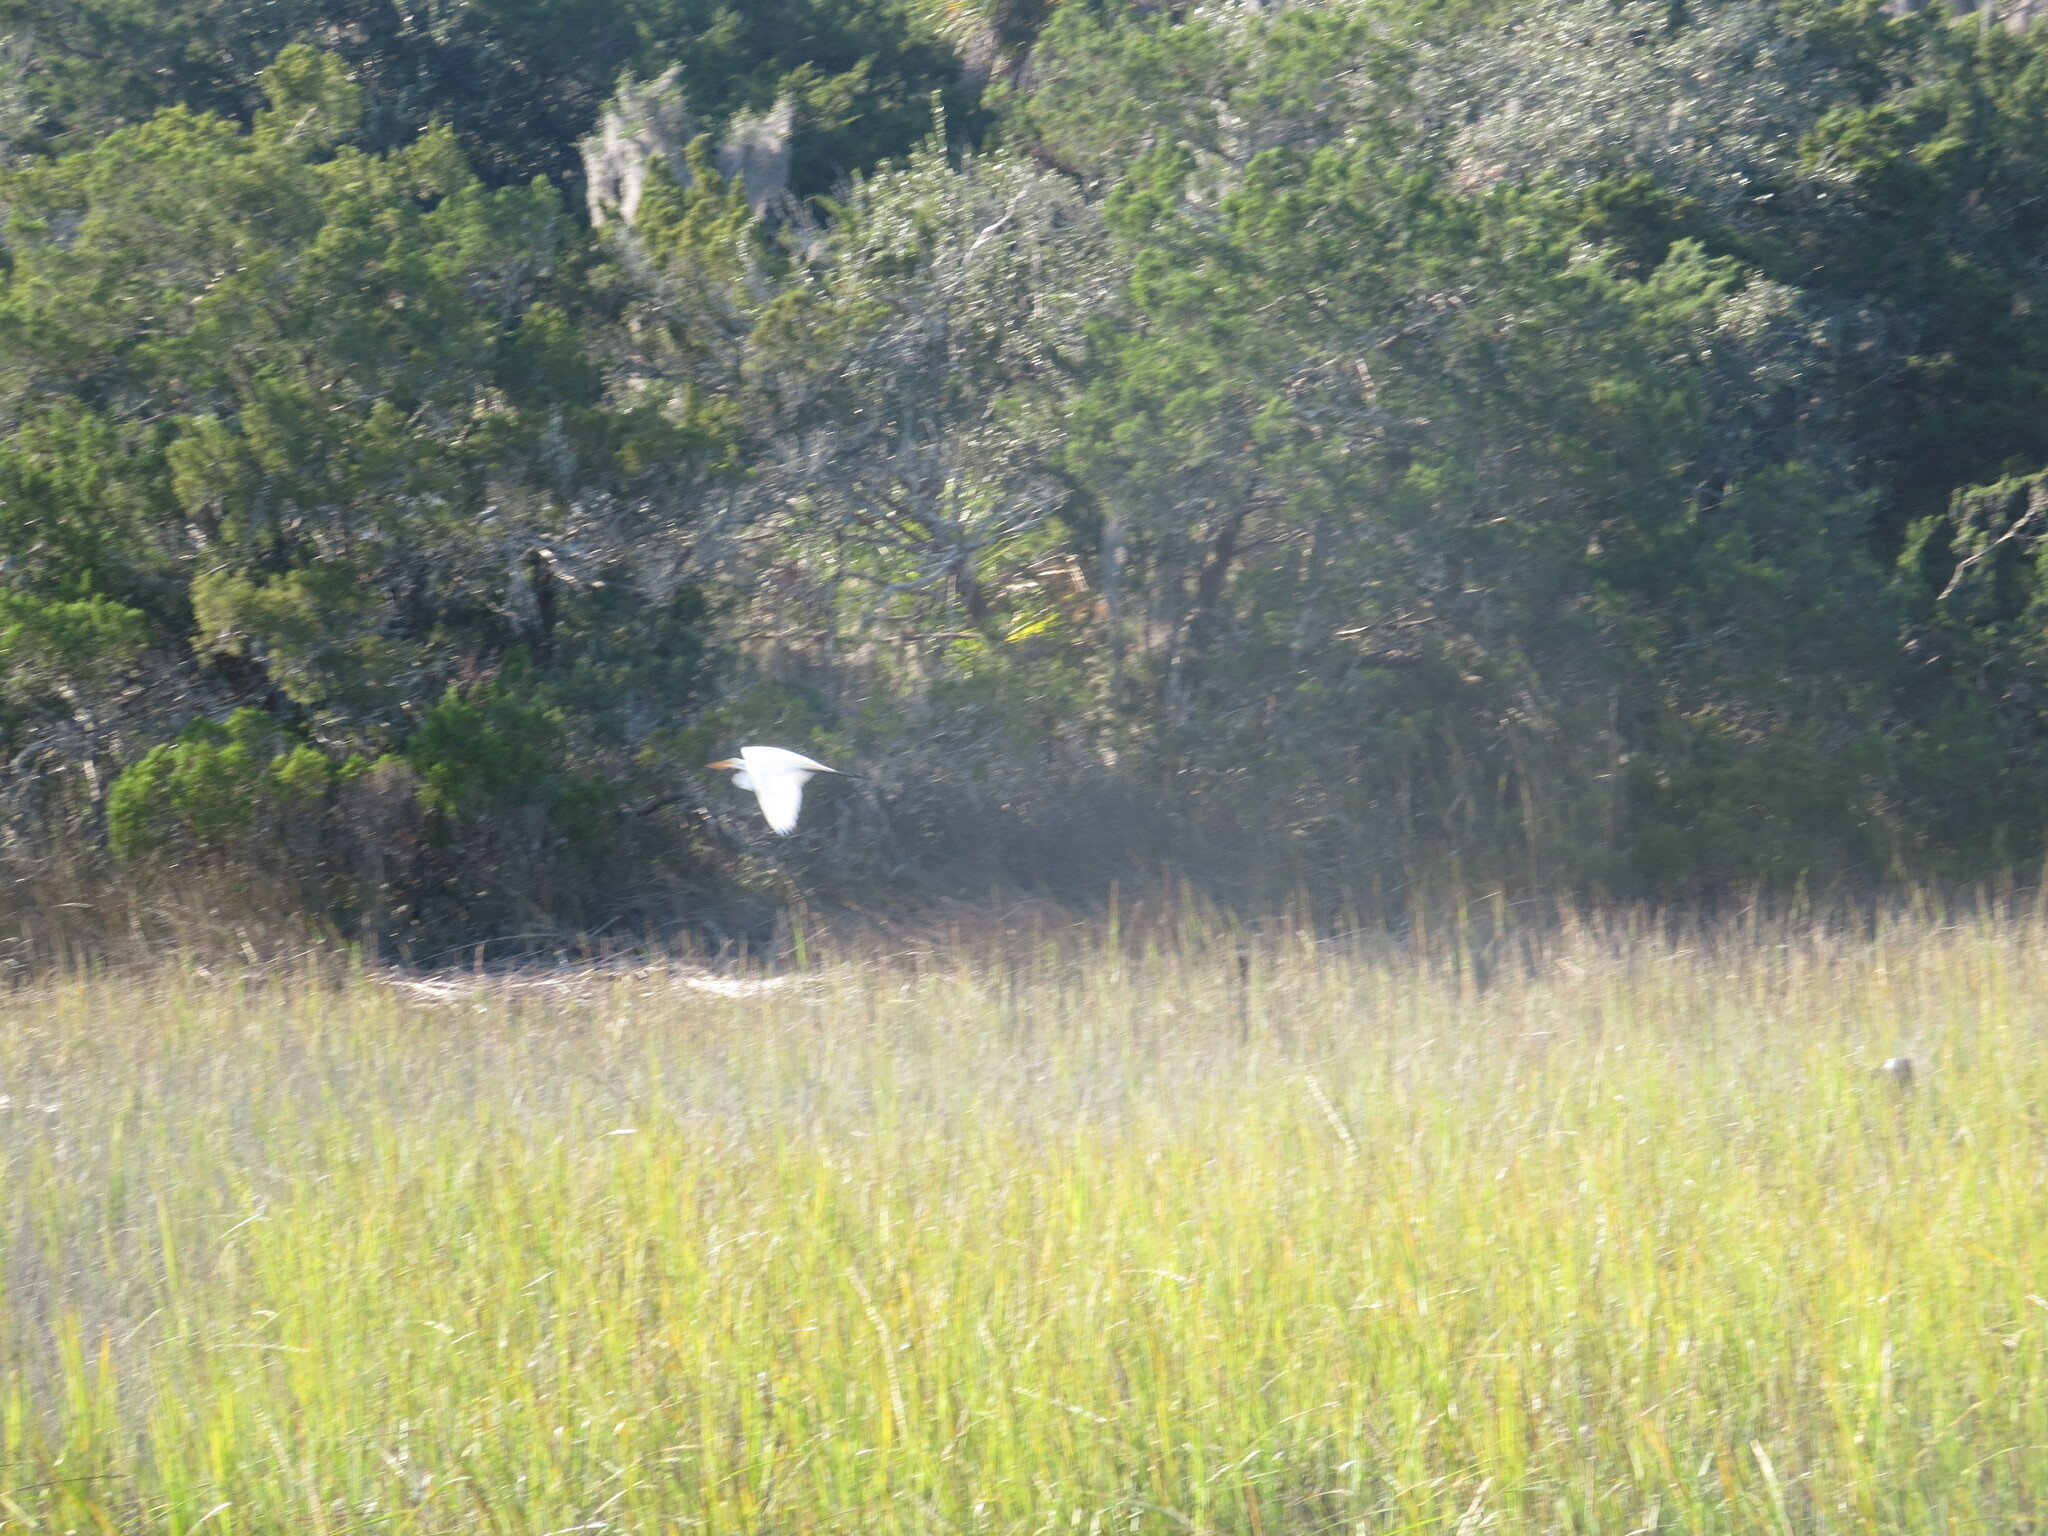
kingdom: Animalia
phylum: Chordata
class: Aves
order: Pelecaniformes
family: Ardeidae
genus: Ardea
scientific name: Ardea alba
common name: Great egret
